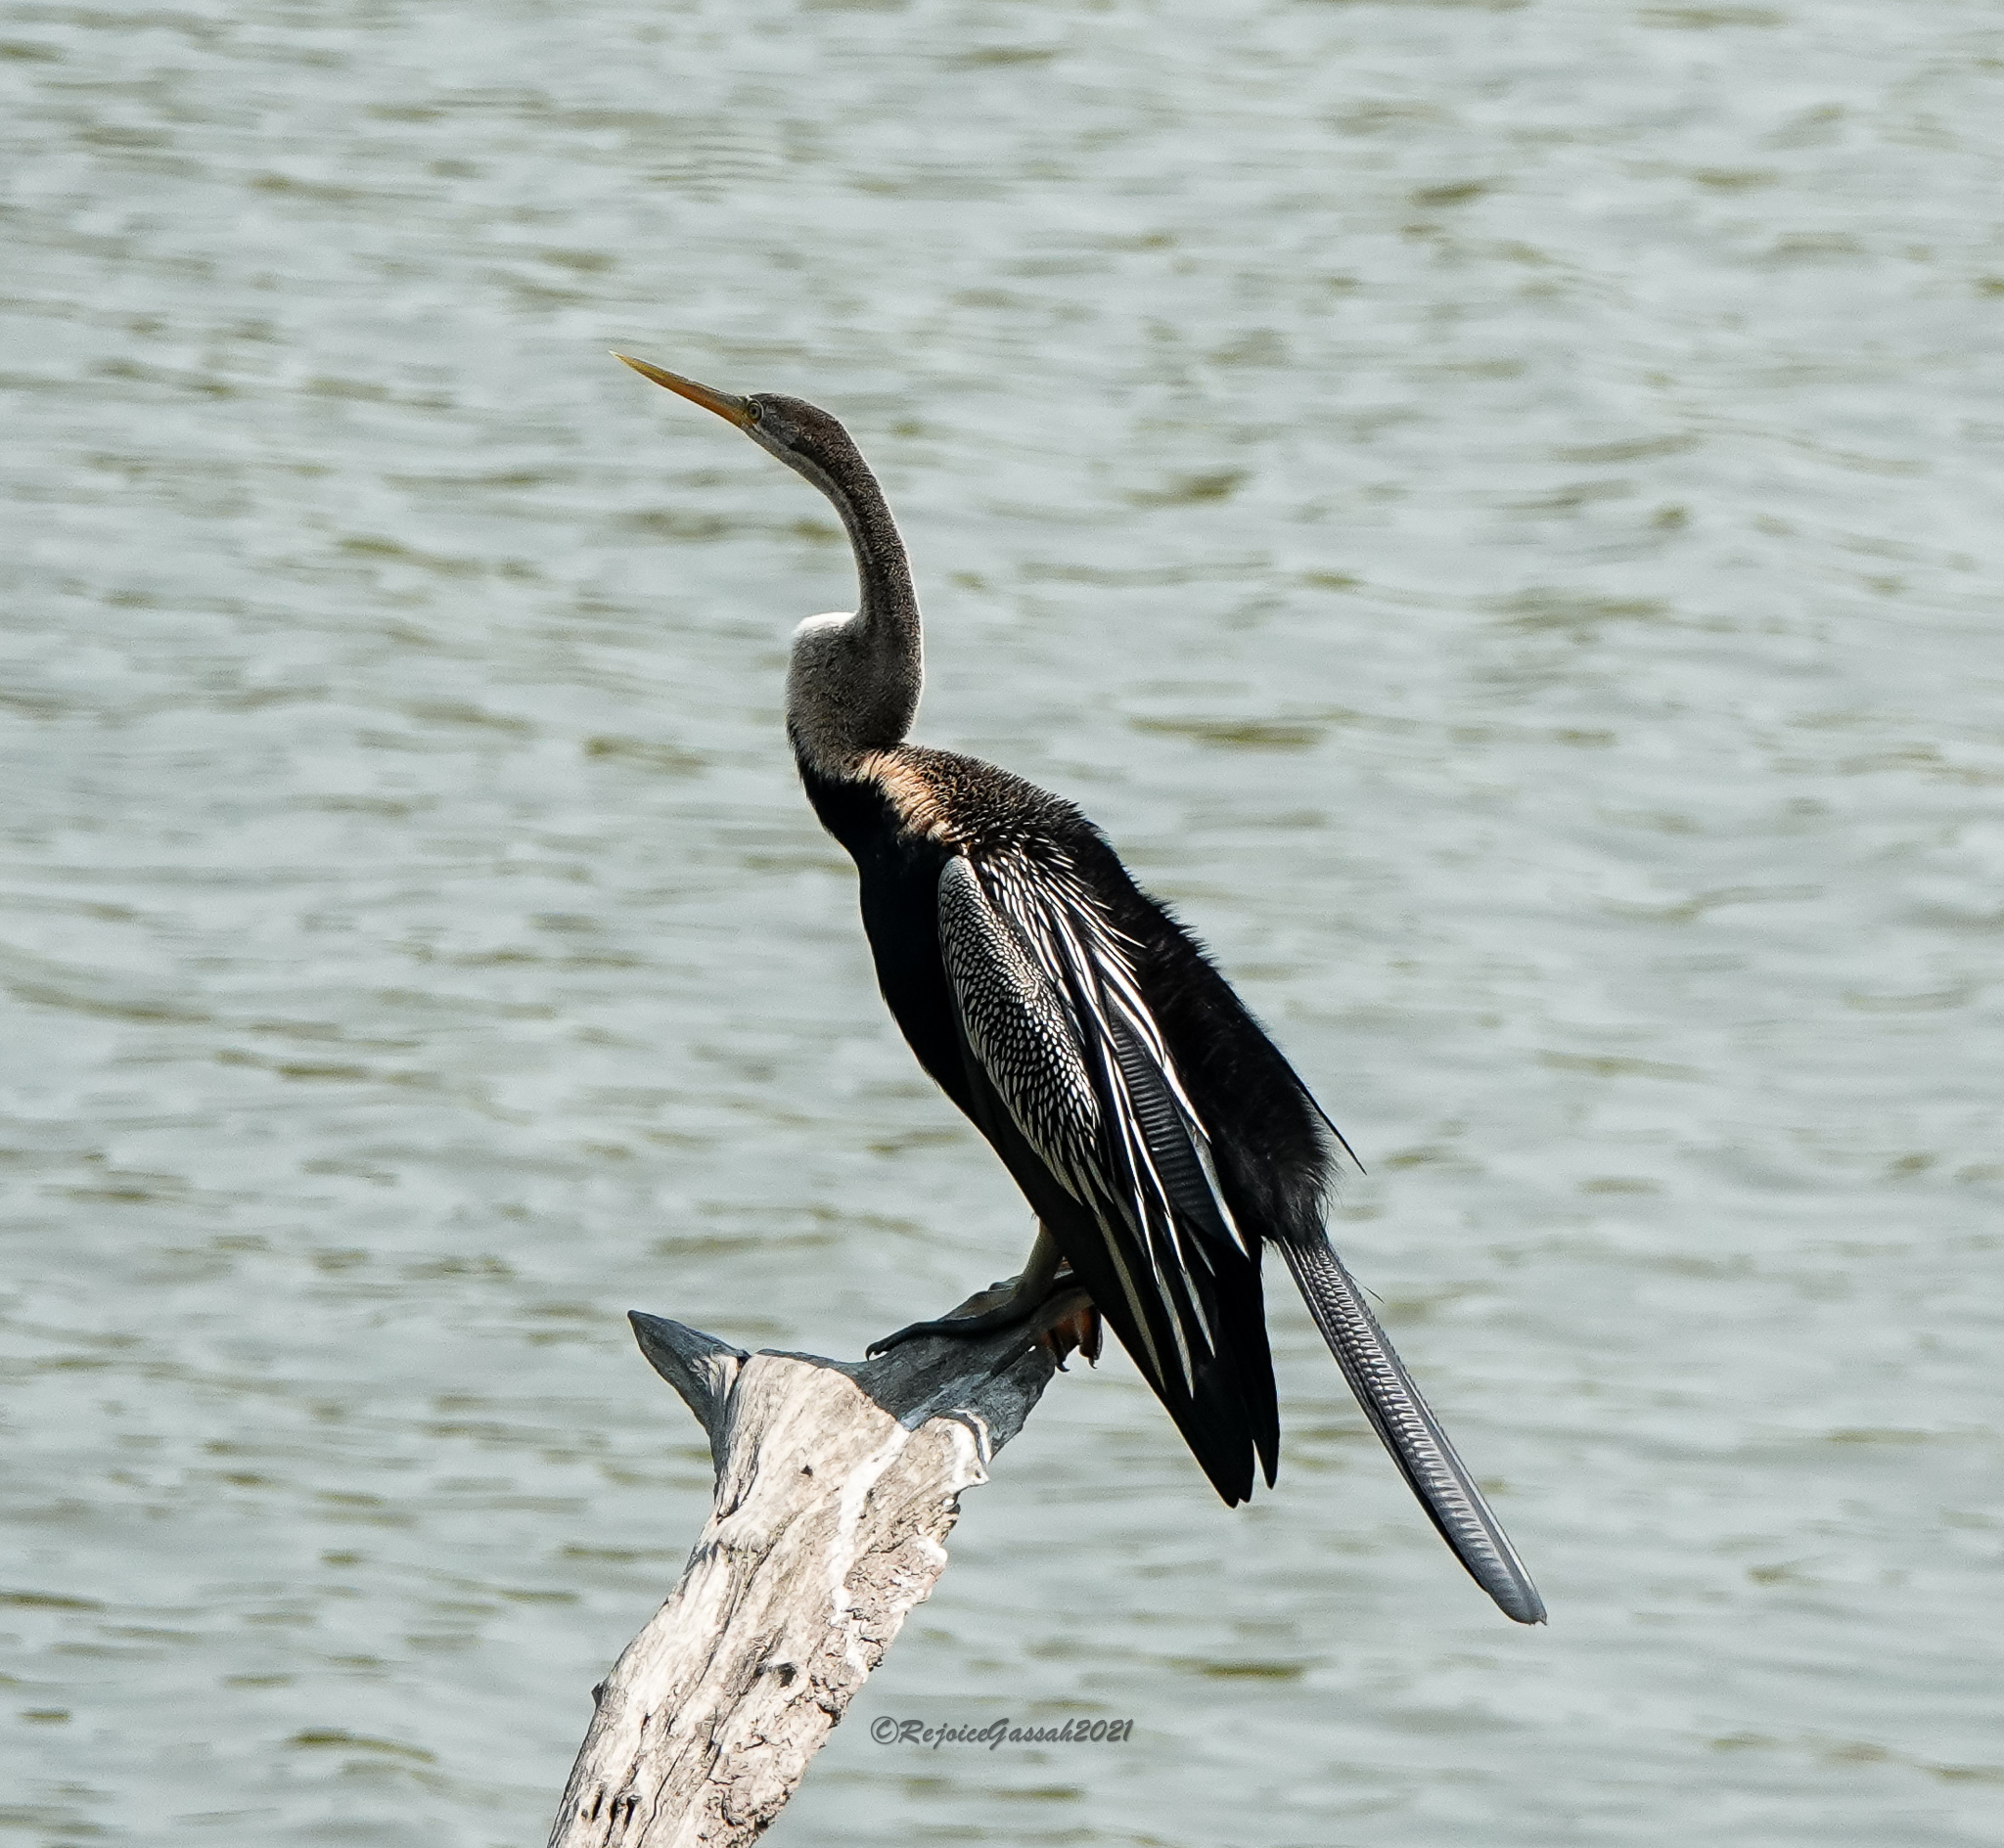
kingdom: Animalia
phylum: Chordata
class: Aves
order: Suliformes
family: Anhingidae
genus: Anhinga
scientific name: Anhinga melanogaster
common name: Oriental darter
